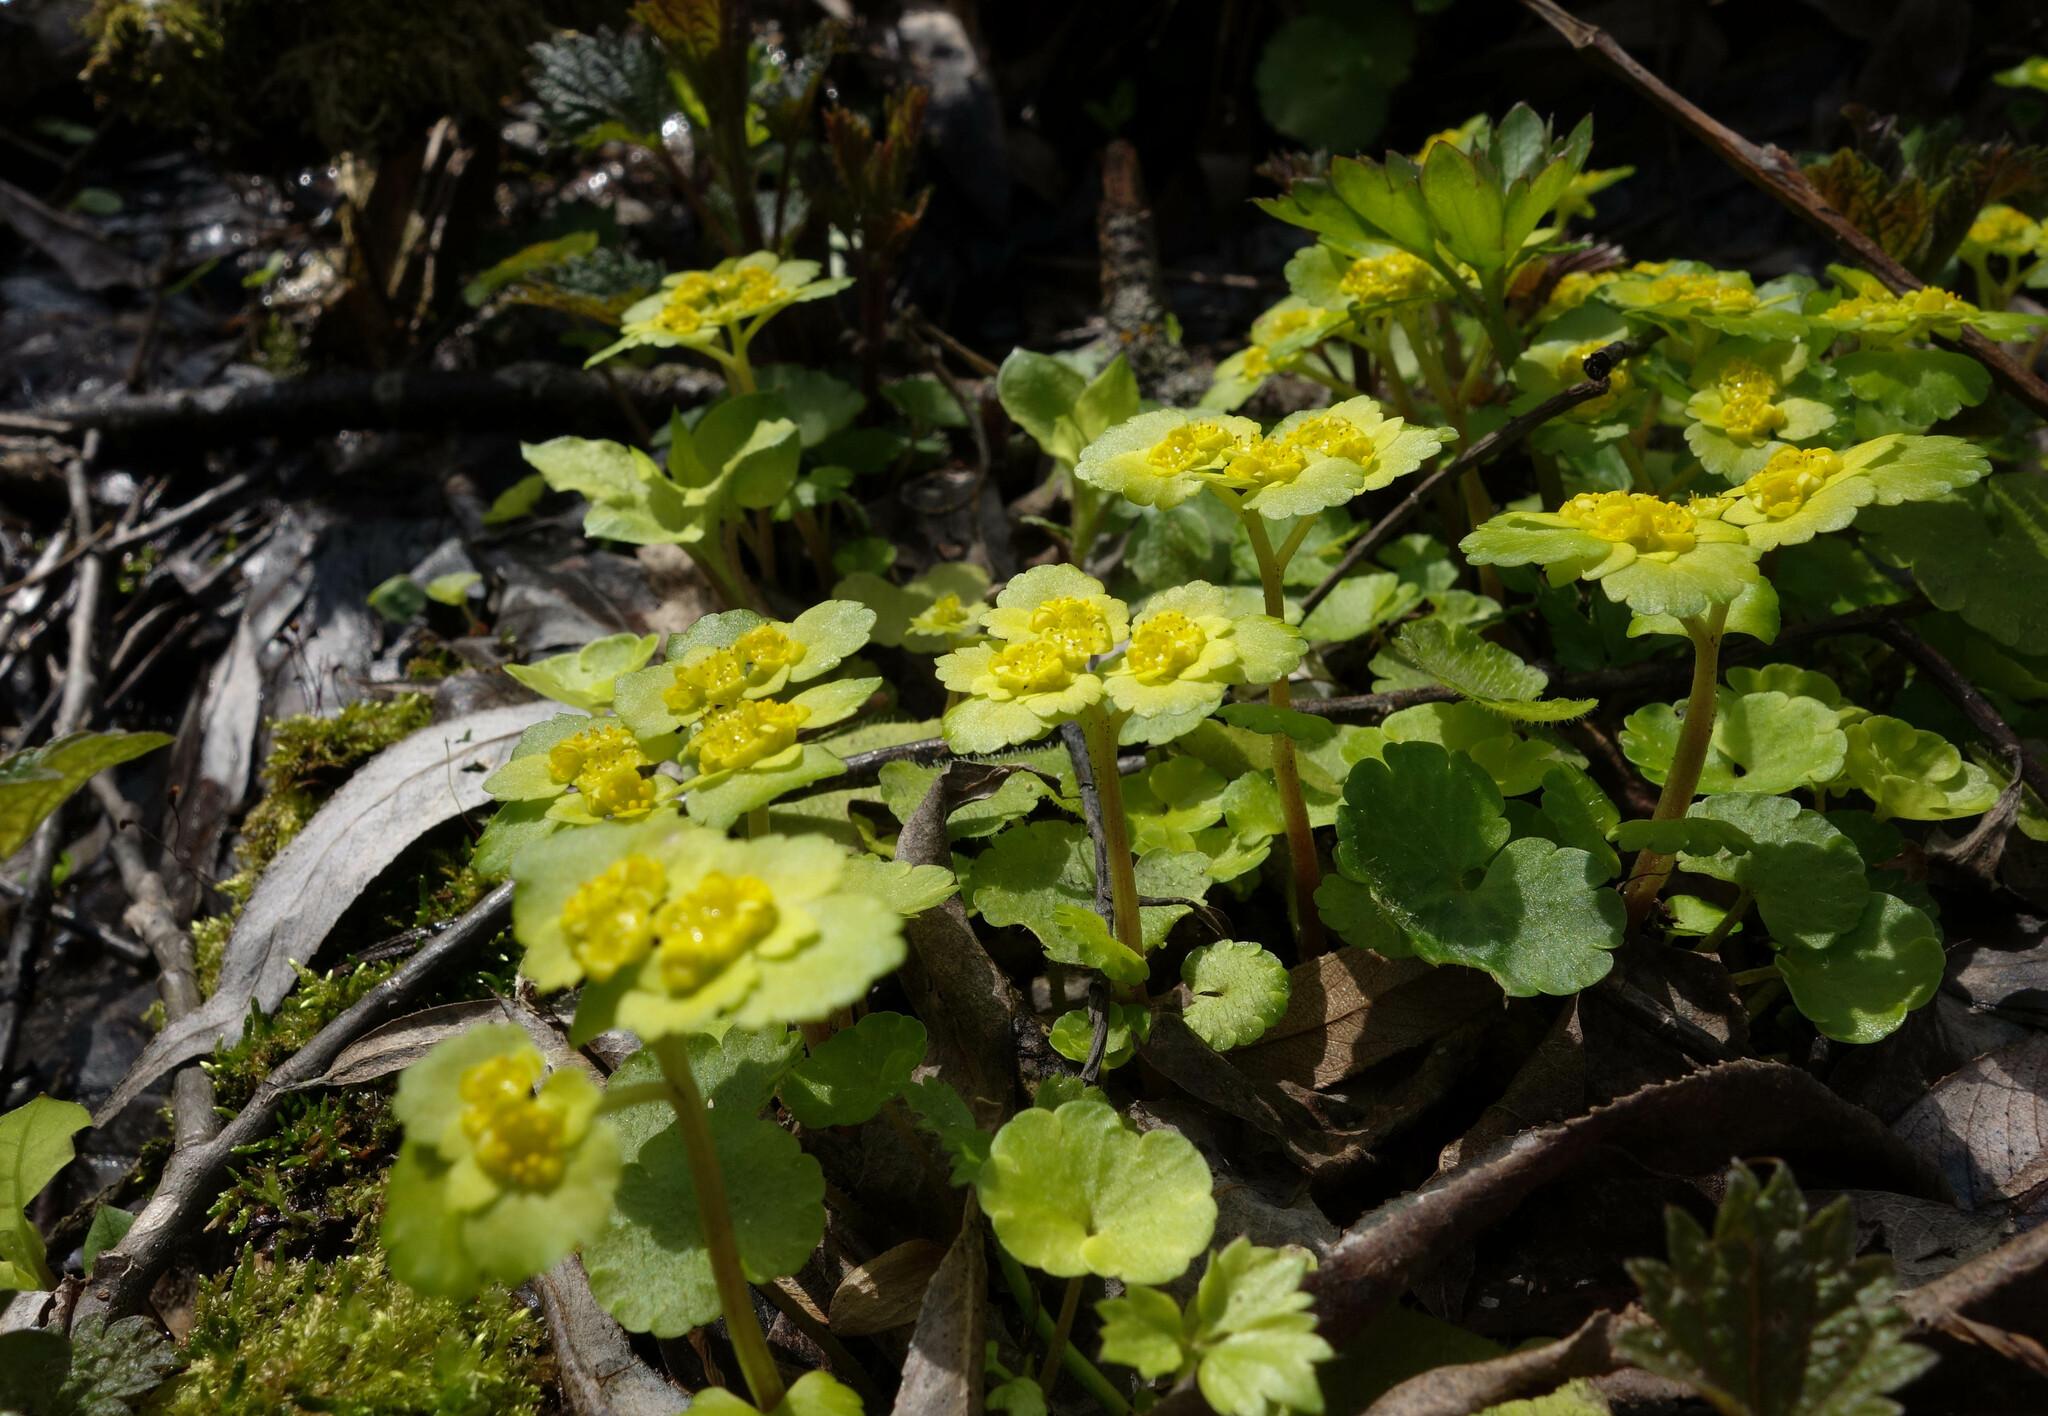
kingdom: Plantae
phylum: Tracheophyta
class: Magnoliopsida
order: Saxifragales
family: Saxifragaceae
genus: Chrysosplenium
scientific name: Chrysosplenium alternifolium
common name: Alternate-leaved golden-saxifrage
